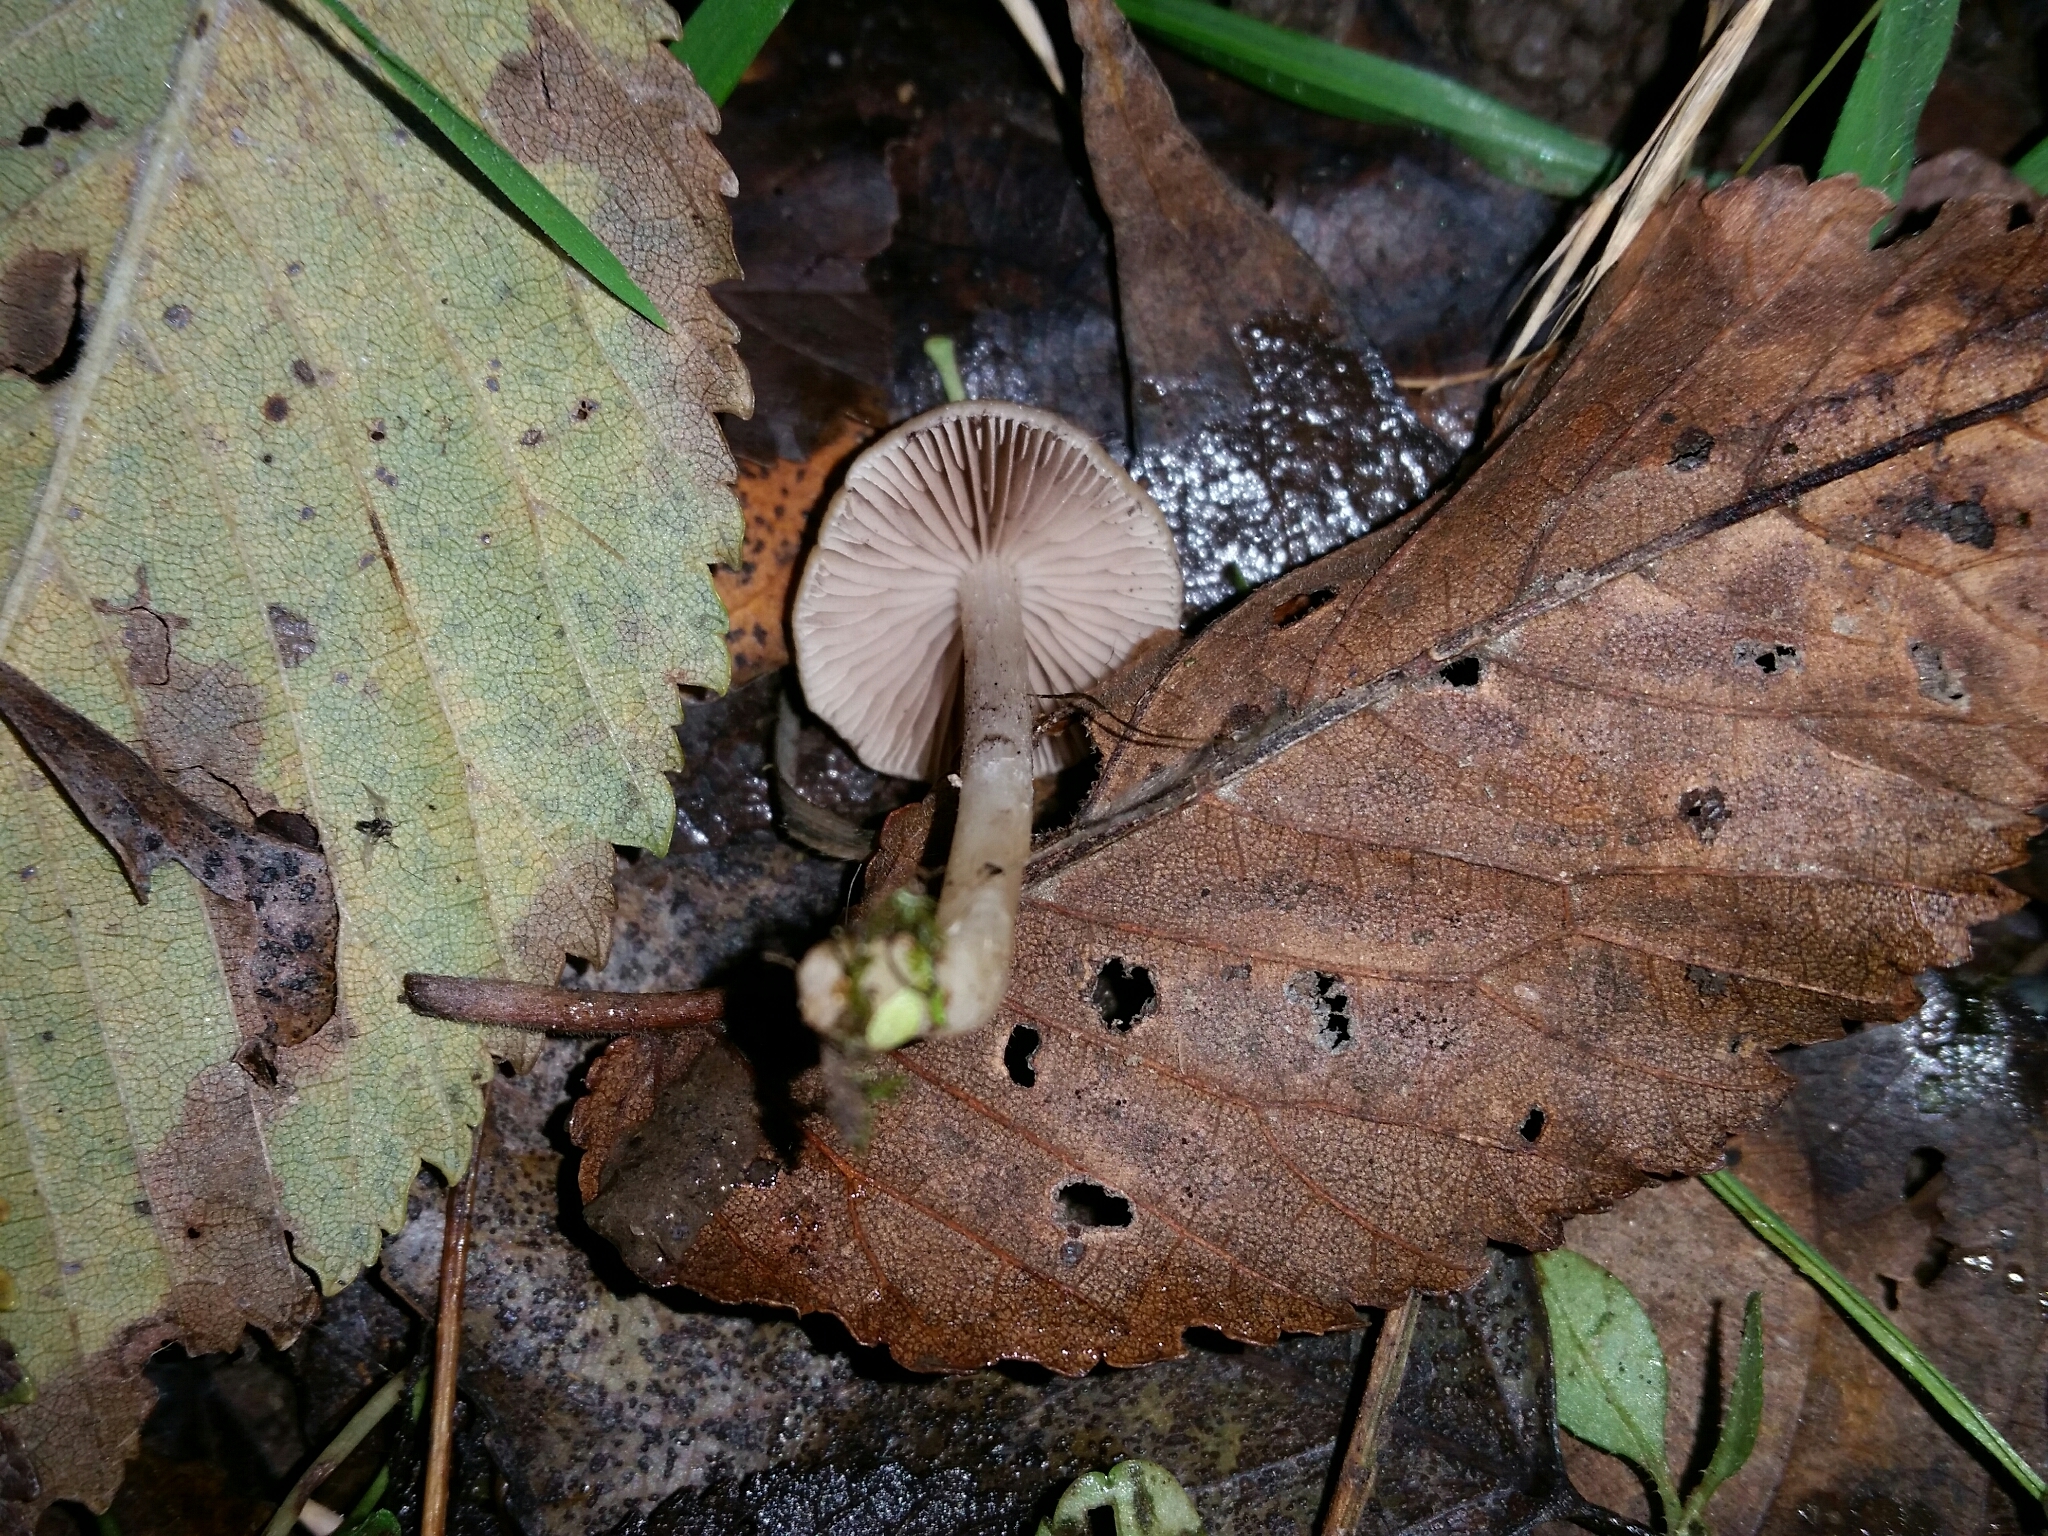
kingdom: Fungi
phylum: Basidiomycota
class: Agaricomycetes
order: Agaricales
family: Psathyrellaceae
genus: Homophron
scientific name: Homophron spadiceum
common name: Chestnut brittlestem
